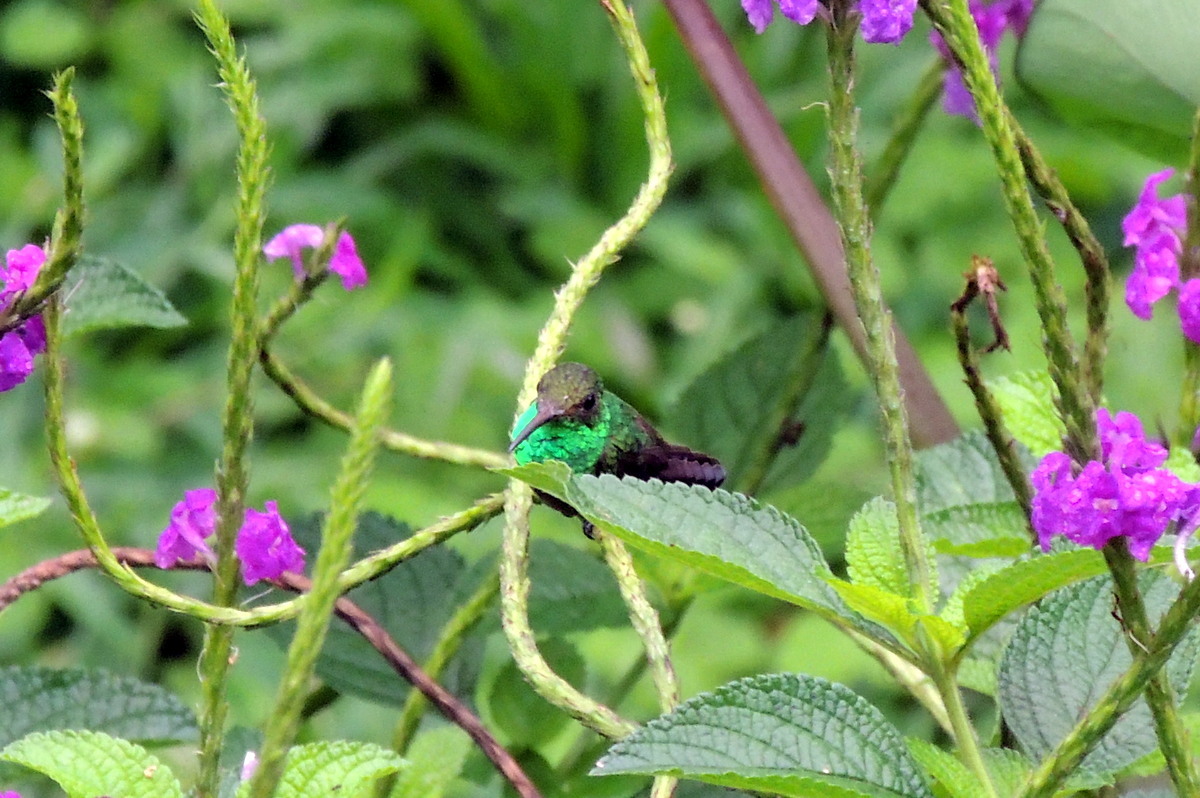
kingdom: Animalia
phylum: Chordata
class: Aves
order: Apodiformes
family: Trochilidae
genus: Amazilia
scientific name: Amazilia tzacatl
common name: Rufous-tailed hummingbird
